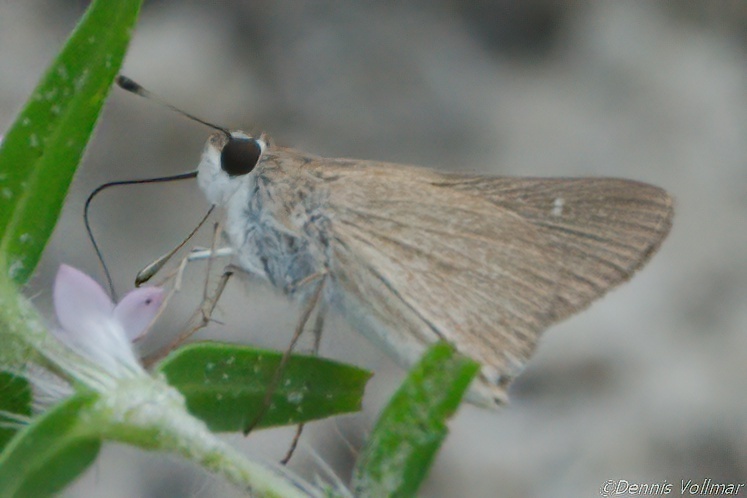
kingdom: Animalia
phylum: Arthropoda
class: Insecta
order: Lepidoptera
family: Hesperiidae
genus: Lerodea
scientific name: Lerodea eufala
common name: Eufala skipper
